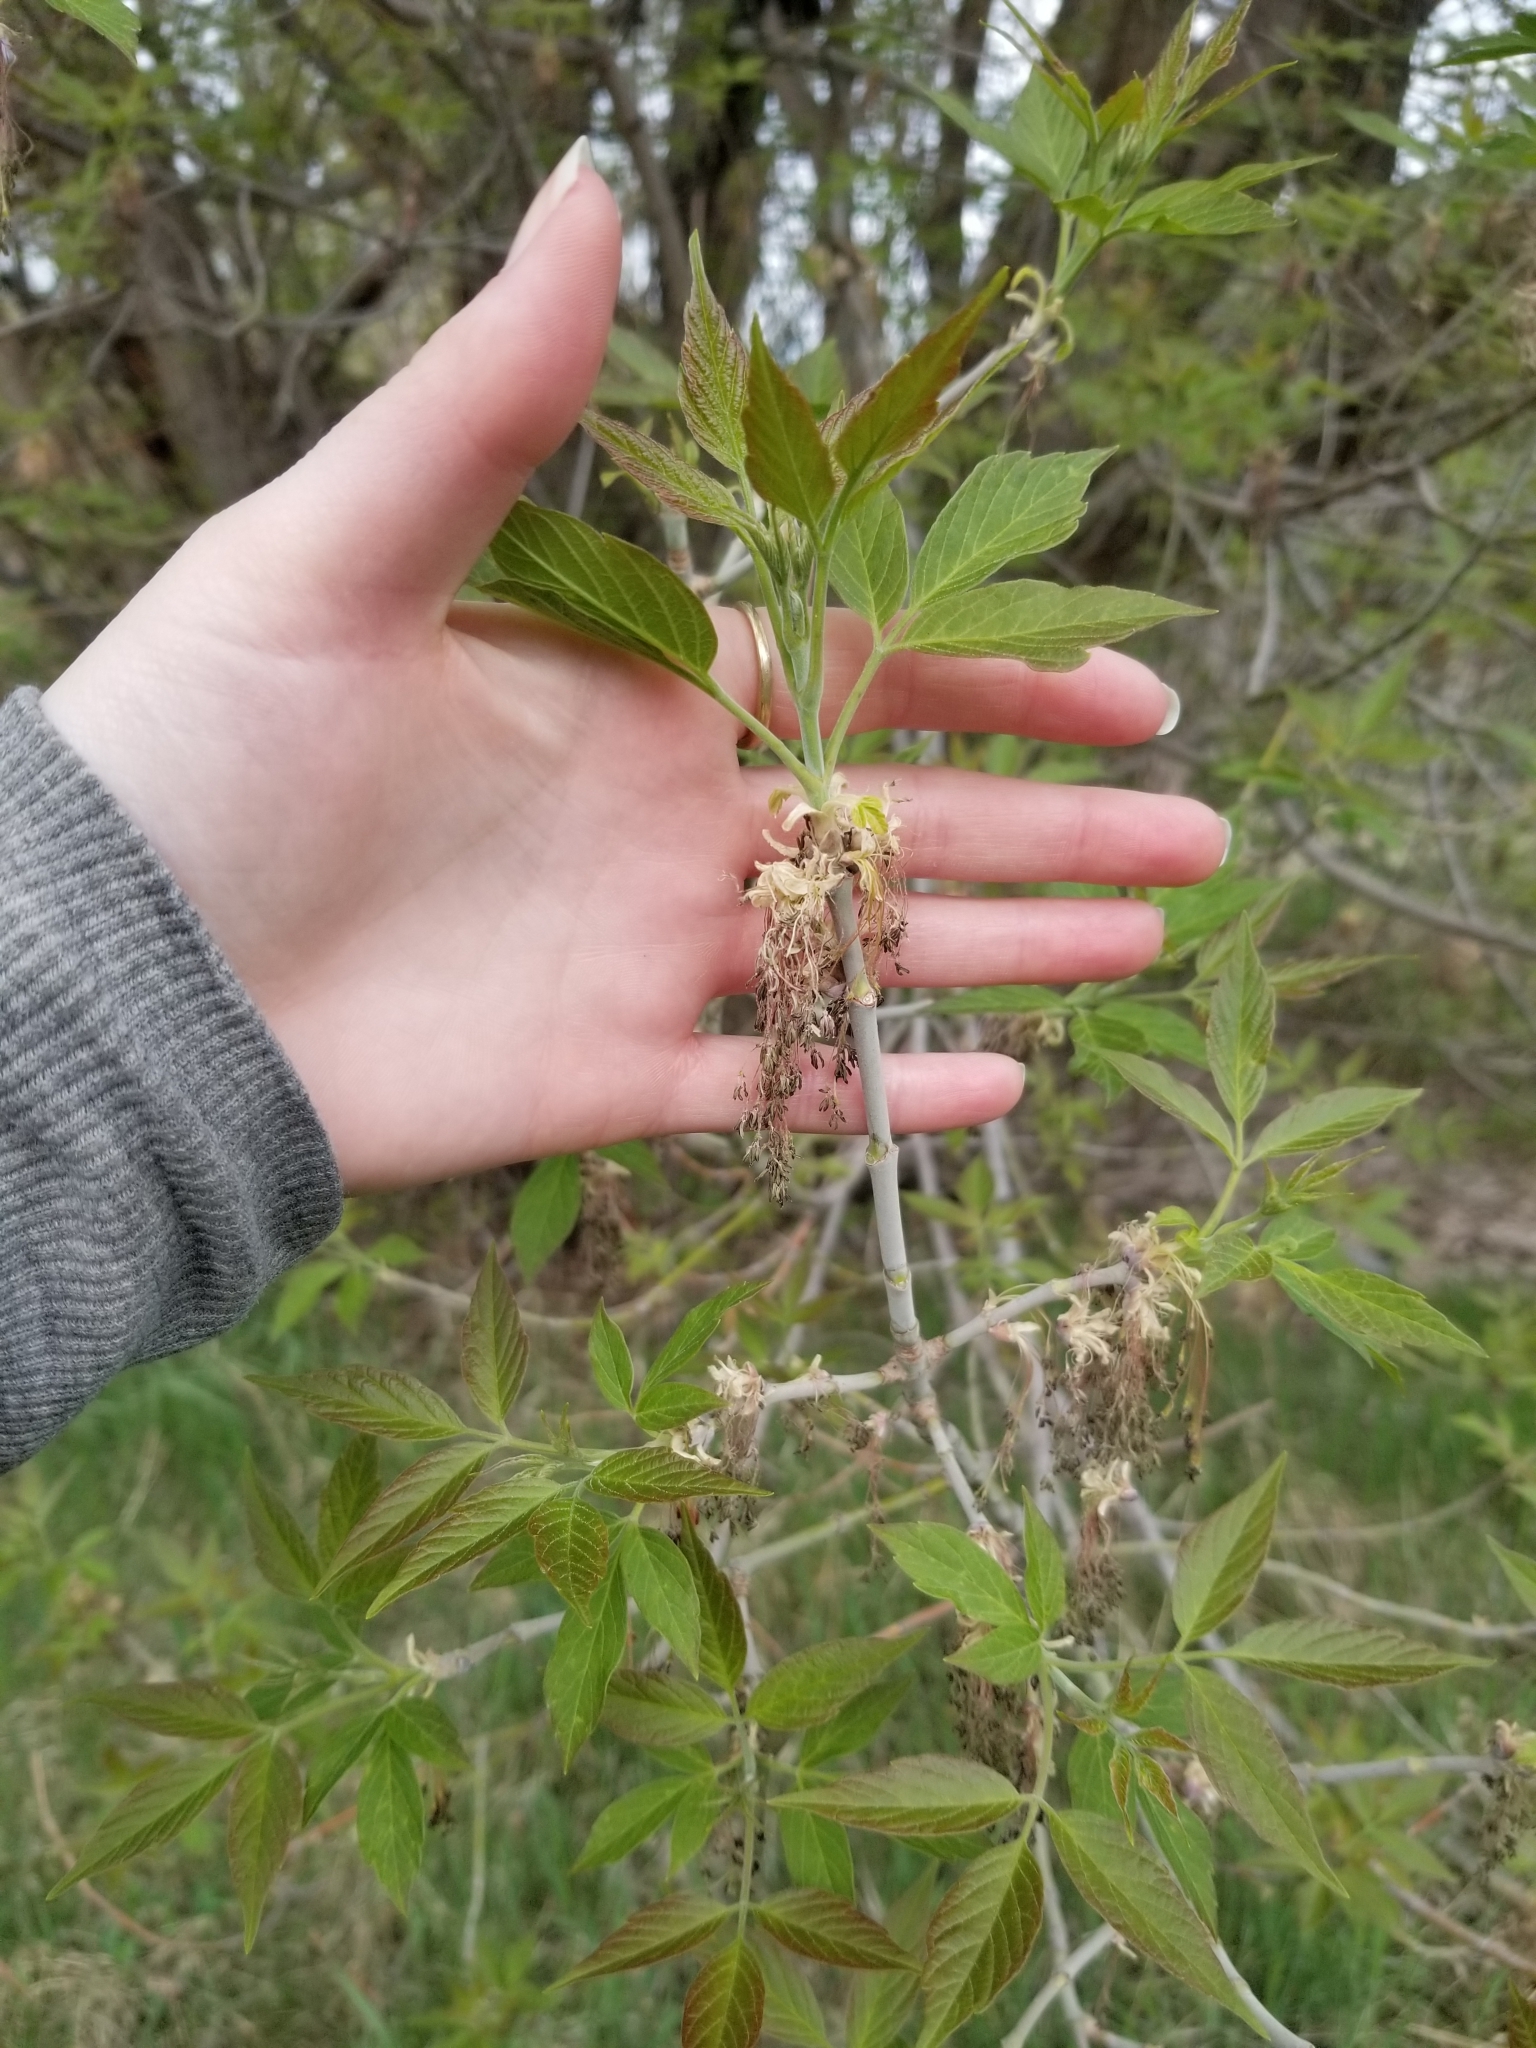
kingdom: Plantae
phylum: Tracheophyta
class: Magnoliopsida
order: Sapindales
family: Sapindaceae
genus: Acer
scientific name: Acer negundo
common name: Ashleaf maple
